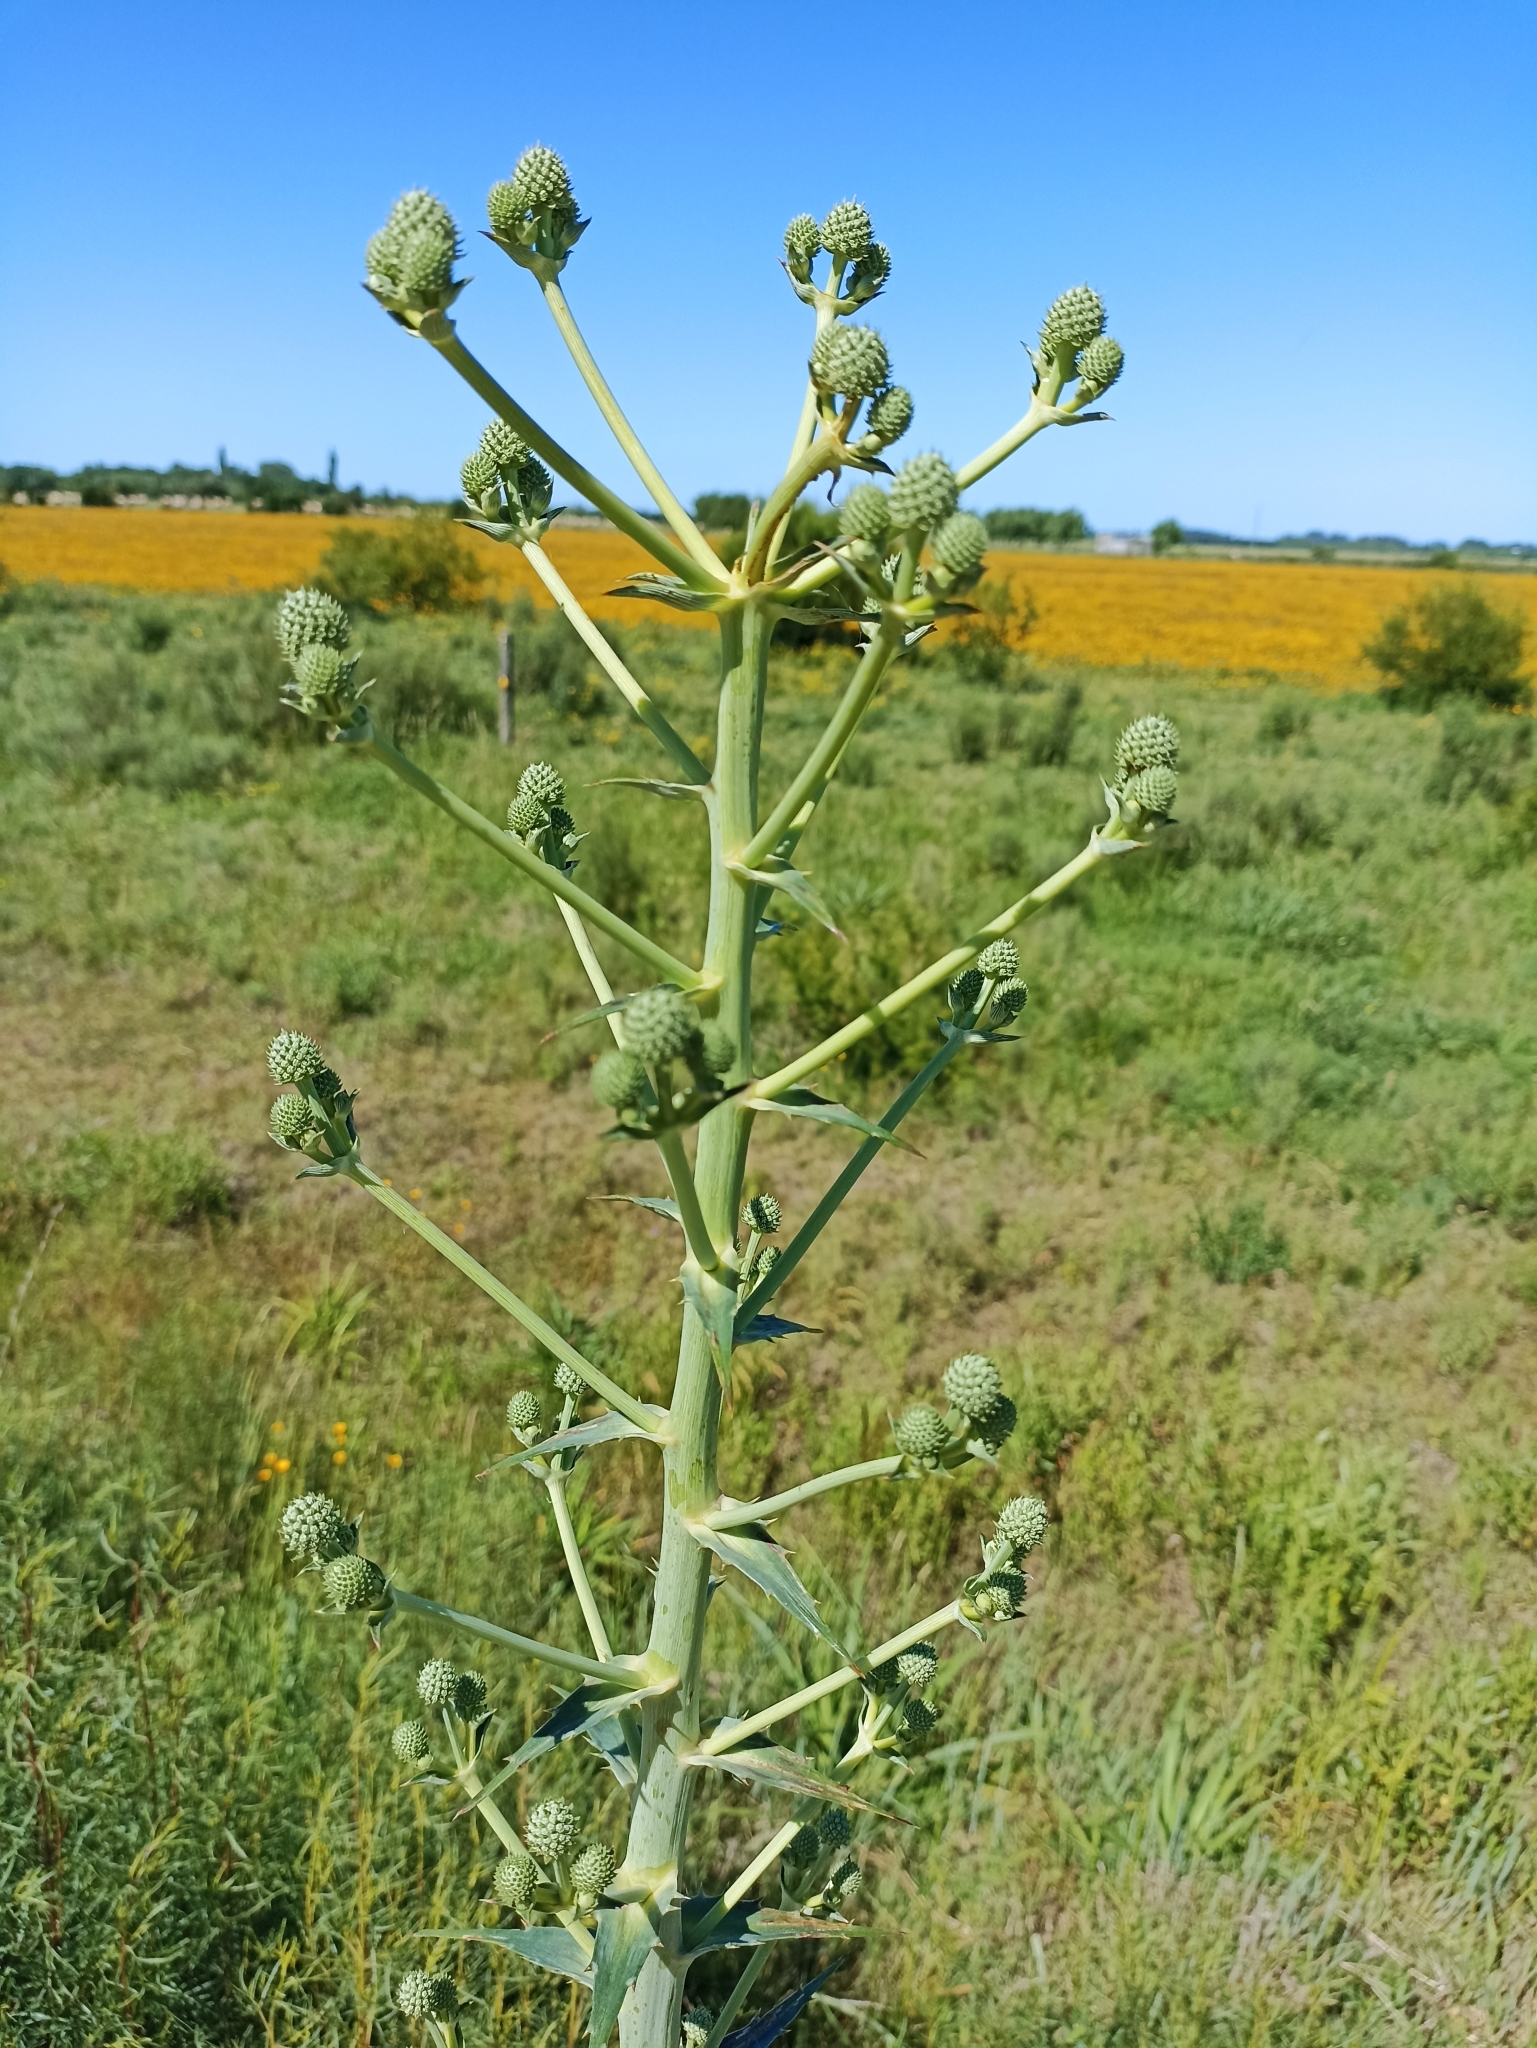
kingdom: Plantae
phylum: Tracheophyta
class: Magnoliopsida
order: Apiales
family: Apiaceae
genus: Eryngium
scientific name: Eryngium horridum
